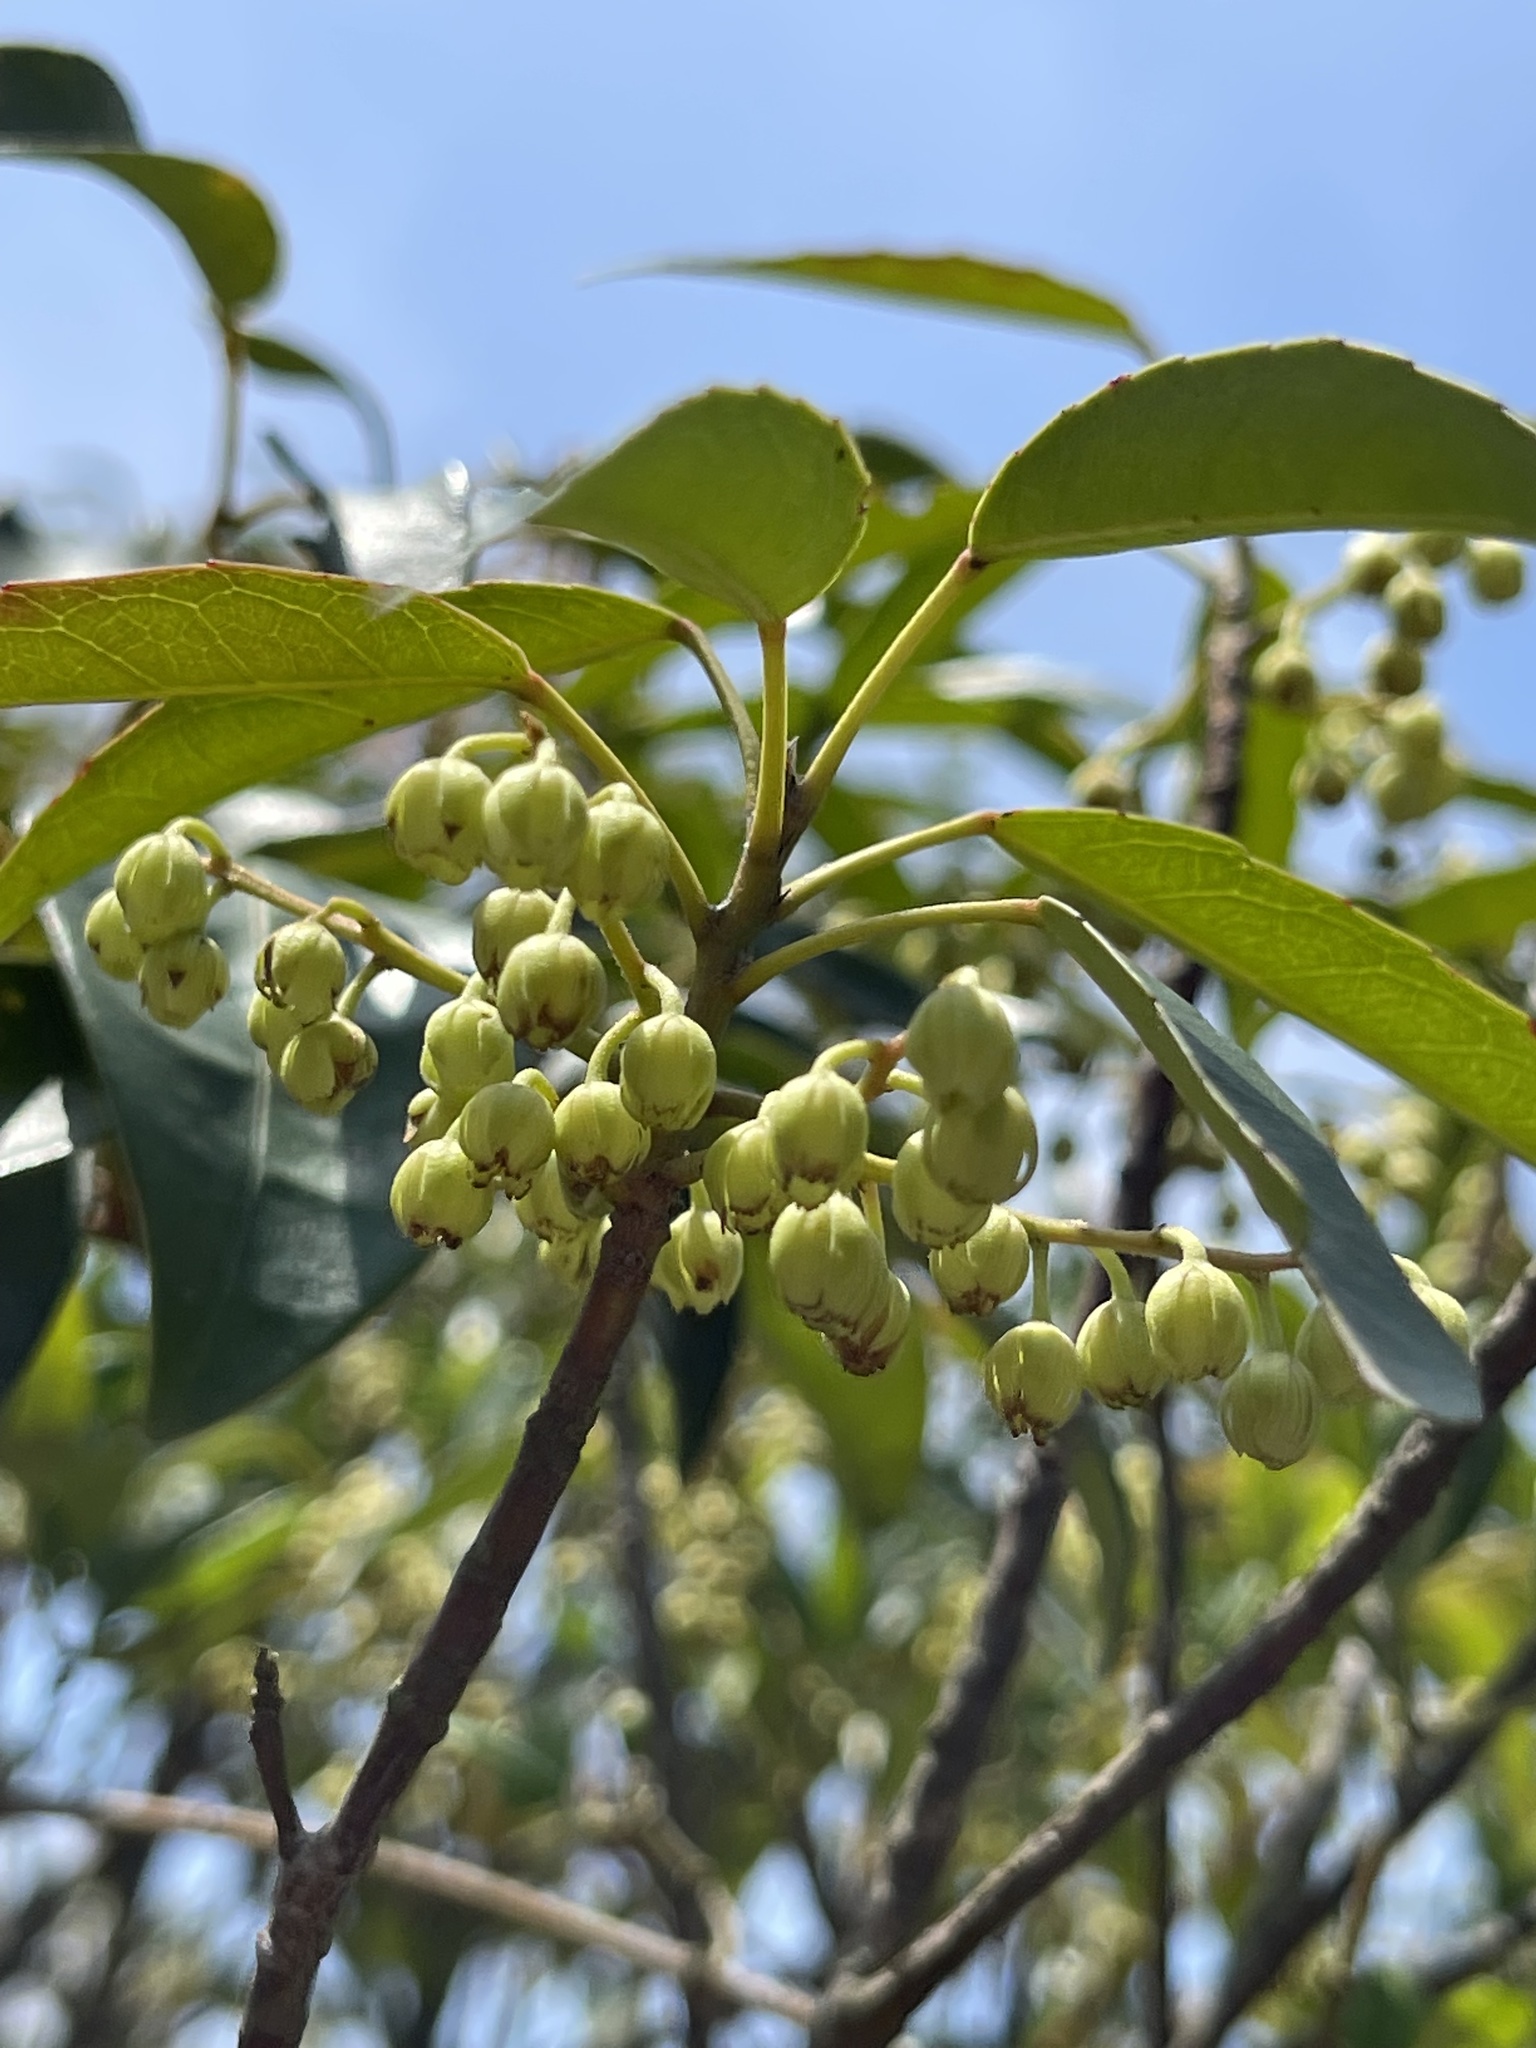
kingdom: Plantae
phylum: Tracheophyta
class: Magnoliopsida
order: Oxalidales
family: Elaeocarpaceae
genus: Elaeocarpus
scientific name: Elaeocarpus chinensis
